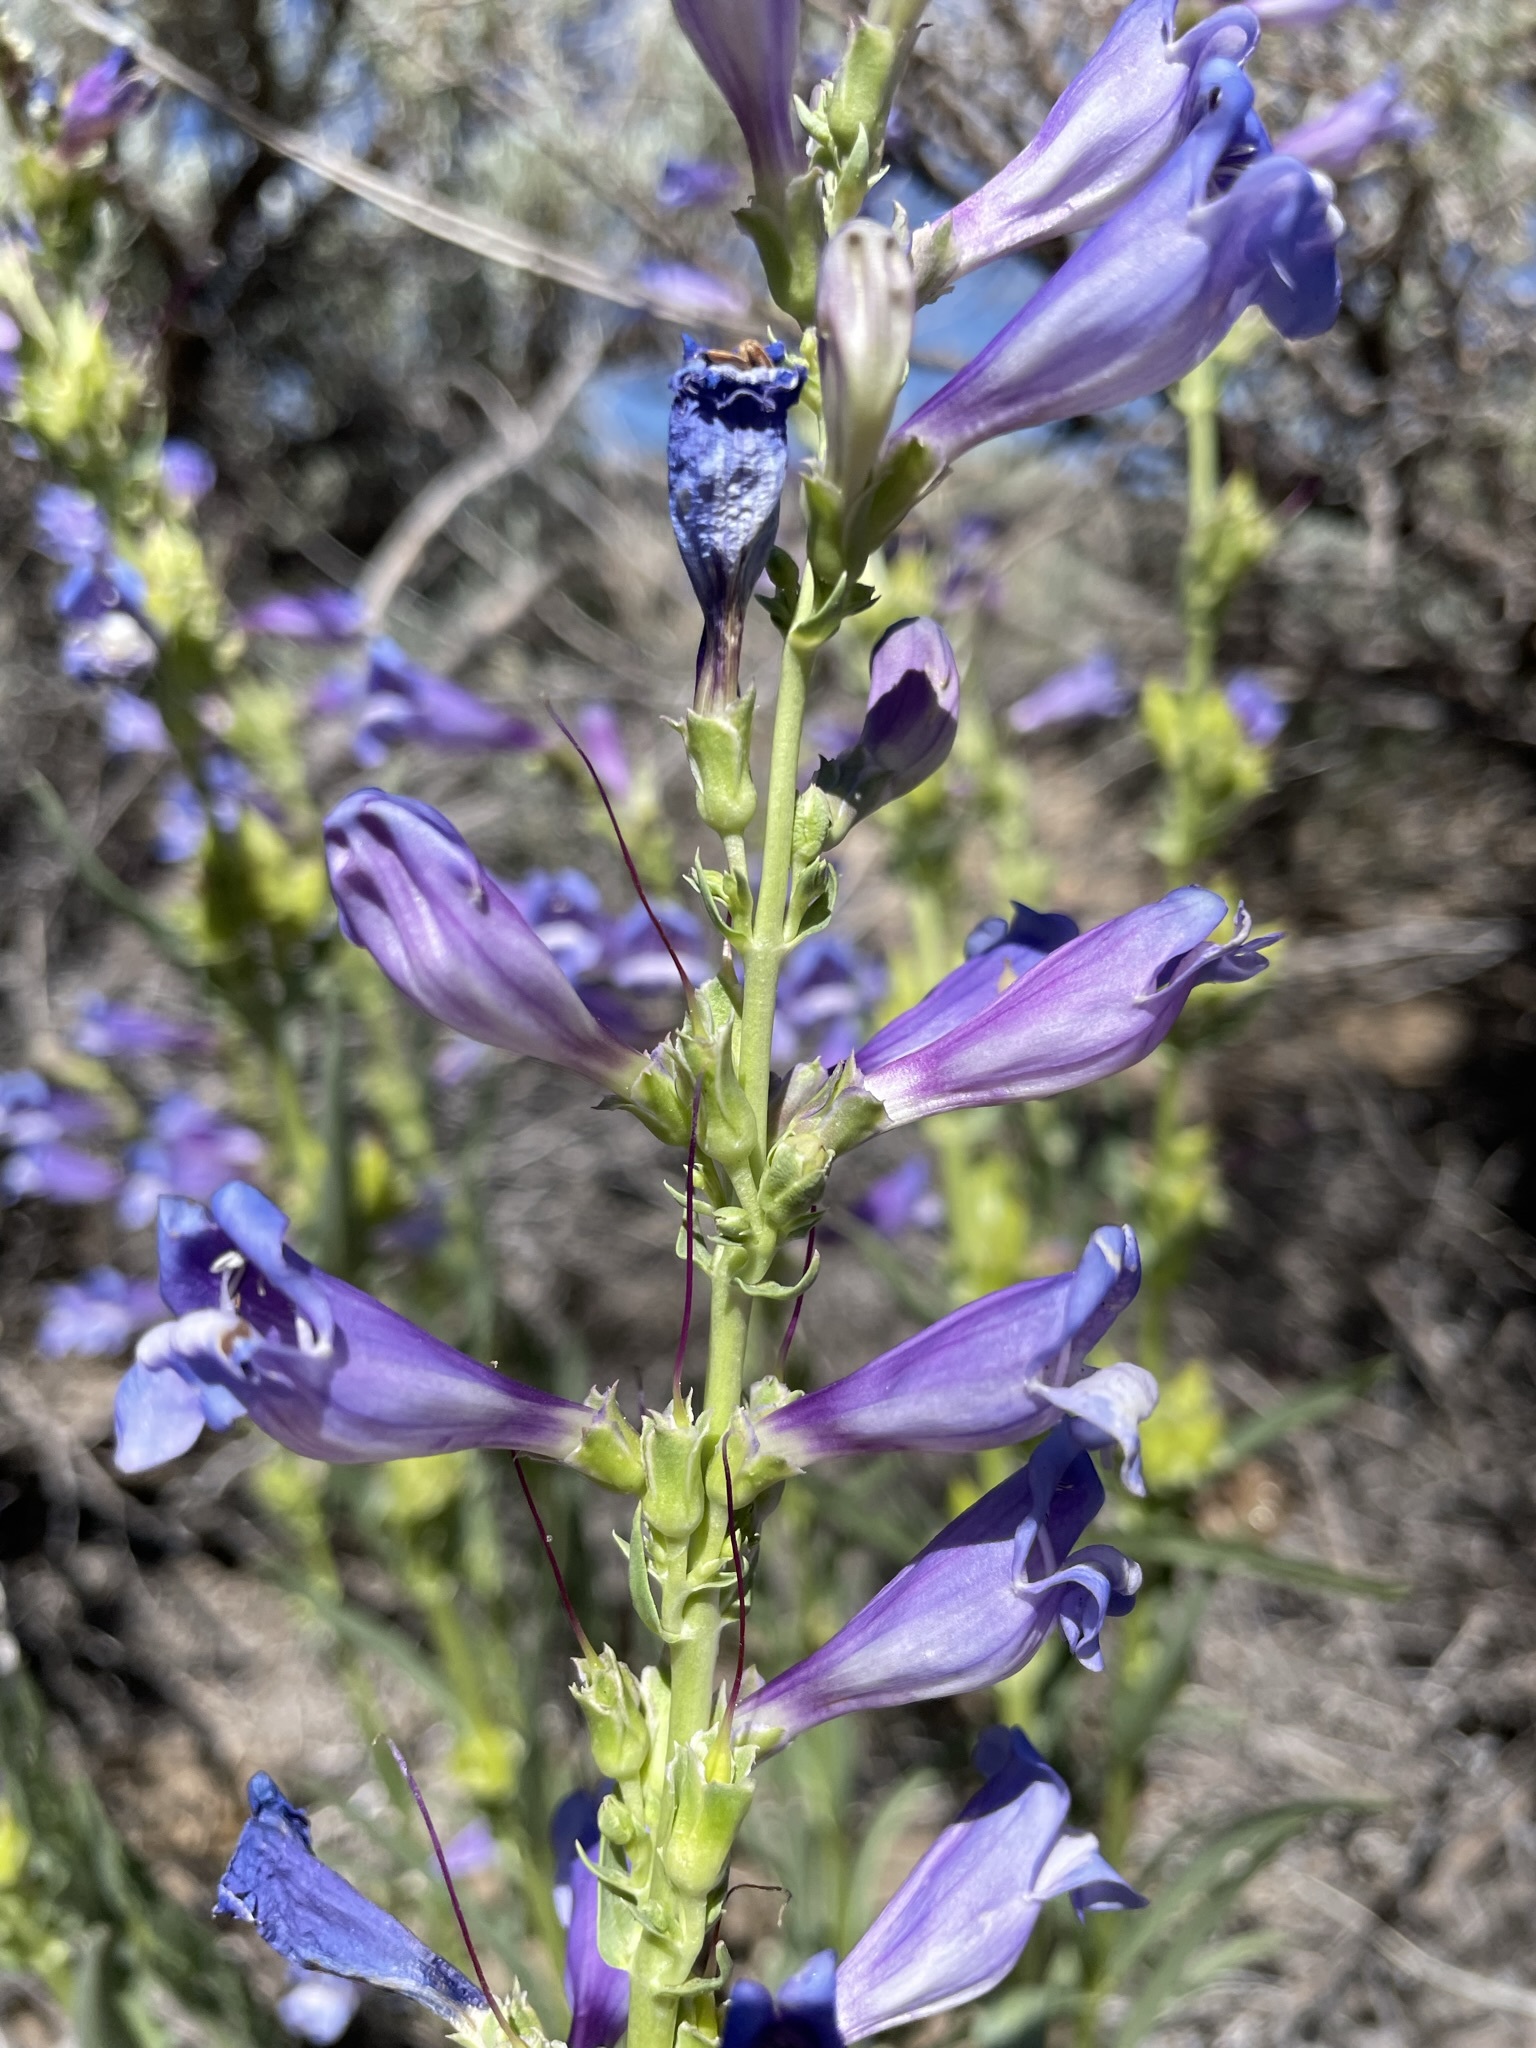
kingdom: Plantae
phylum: Tracheophyta
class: Magnoliopsida
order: Lamiales
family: Plantaginaceae
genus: Penstemon
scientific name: Penstemon speciosus
